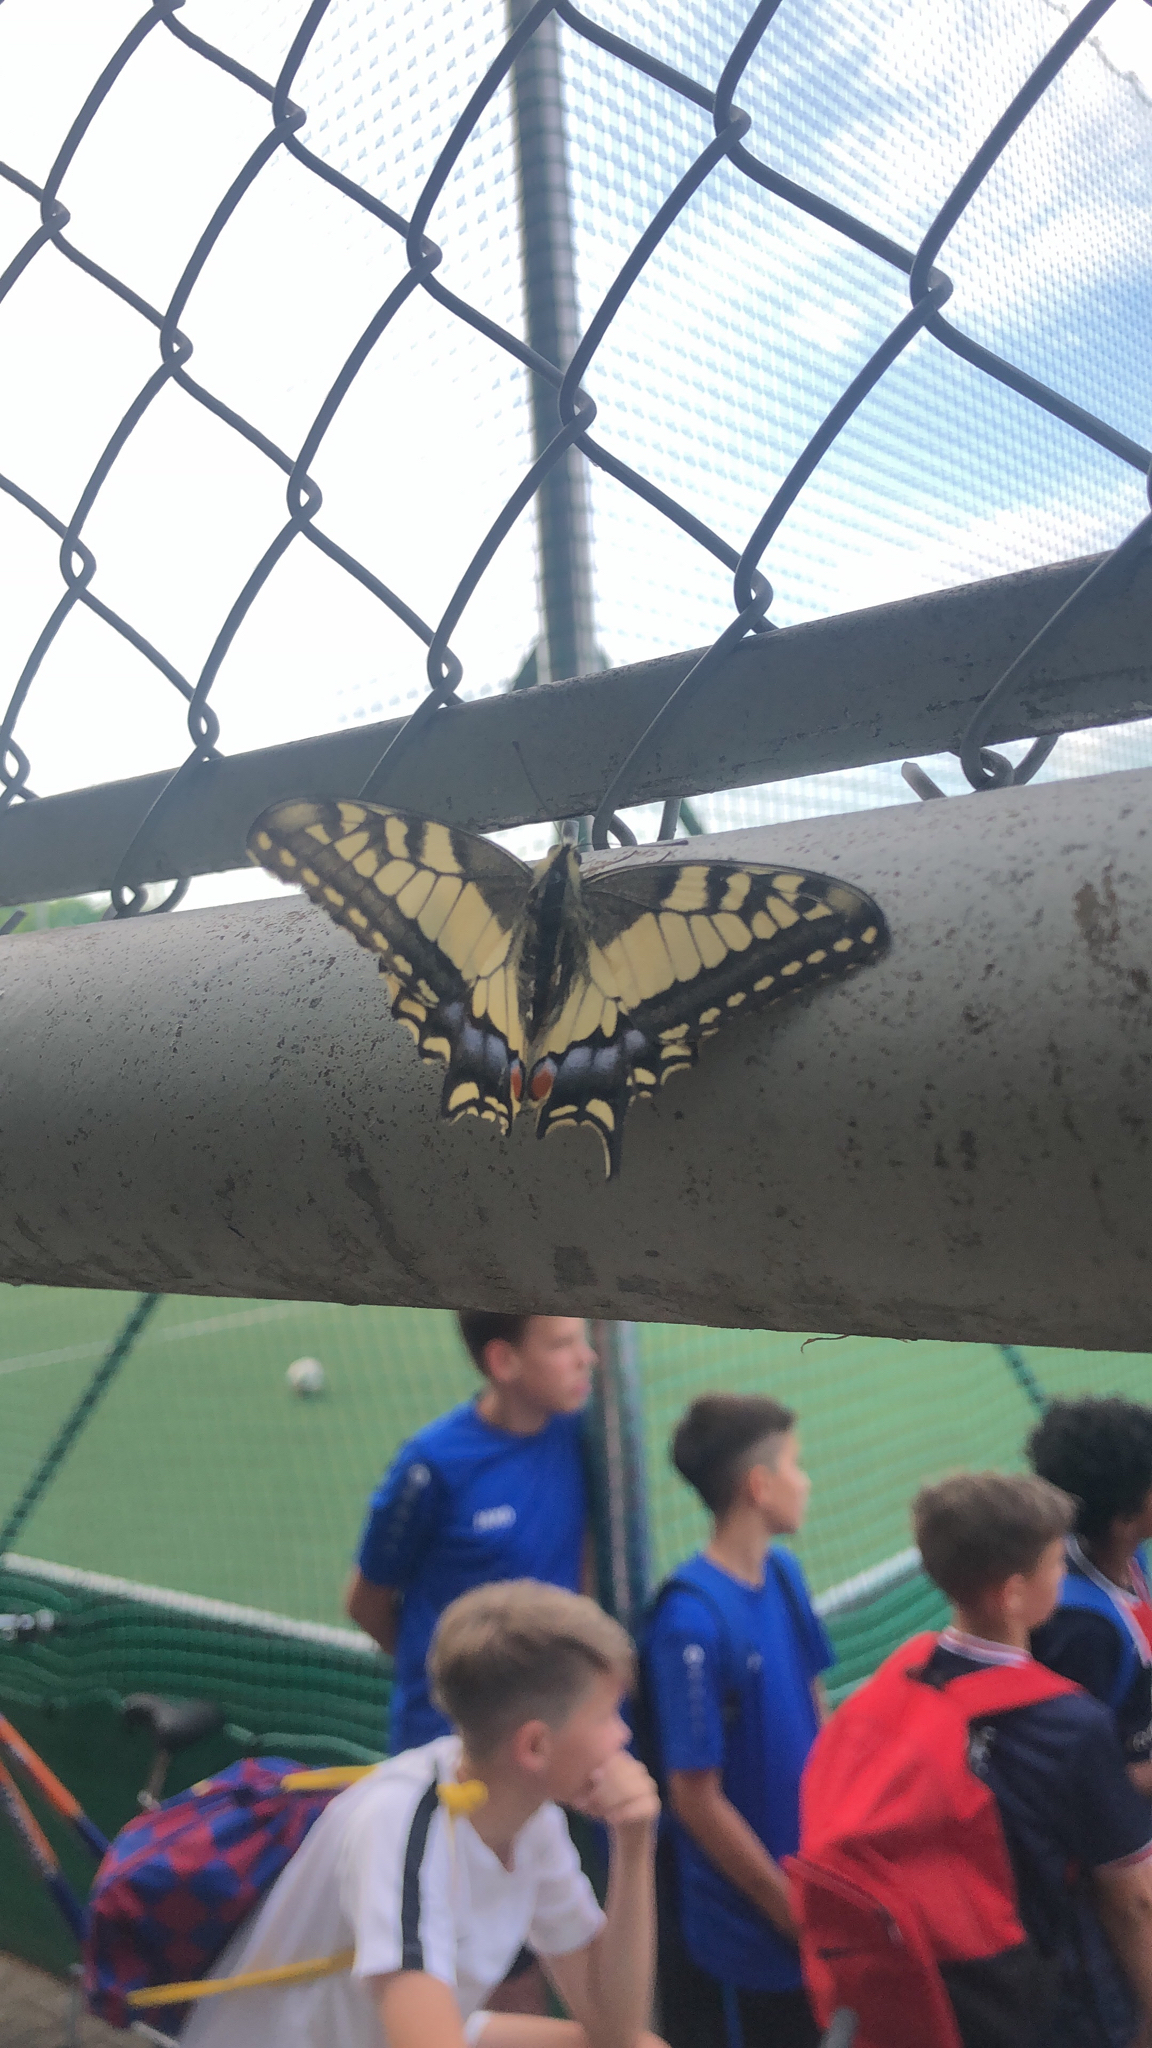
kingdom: Animalia
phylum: Arthropoda
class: Insecta
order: Lepidoptera
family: Papilionidae
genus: Papilio
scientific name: Papilio machaon
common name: Swallowtail
